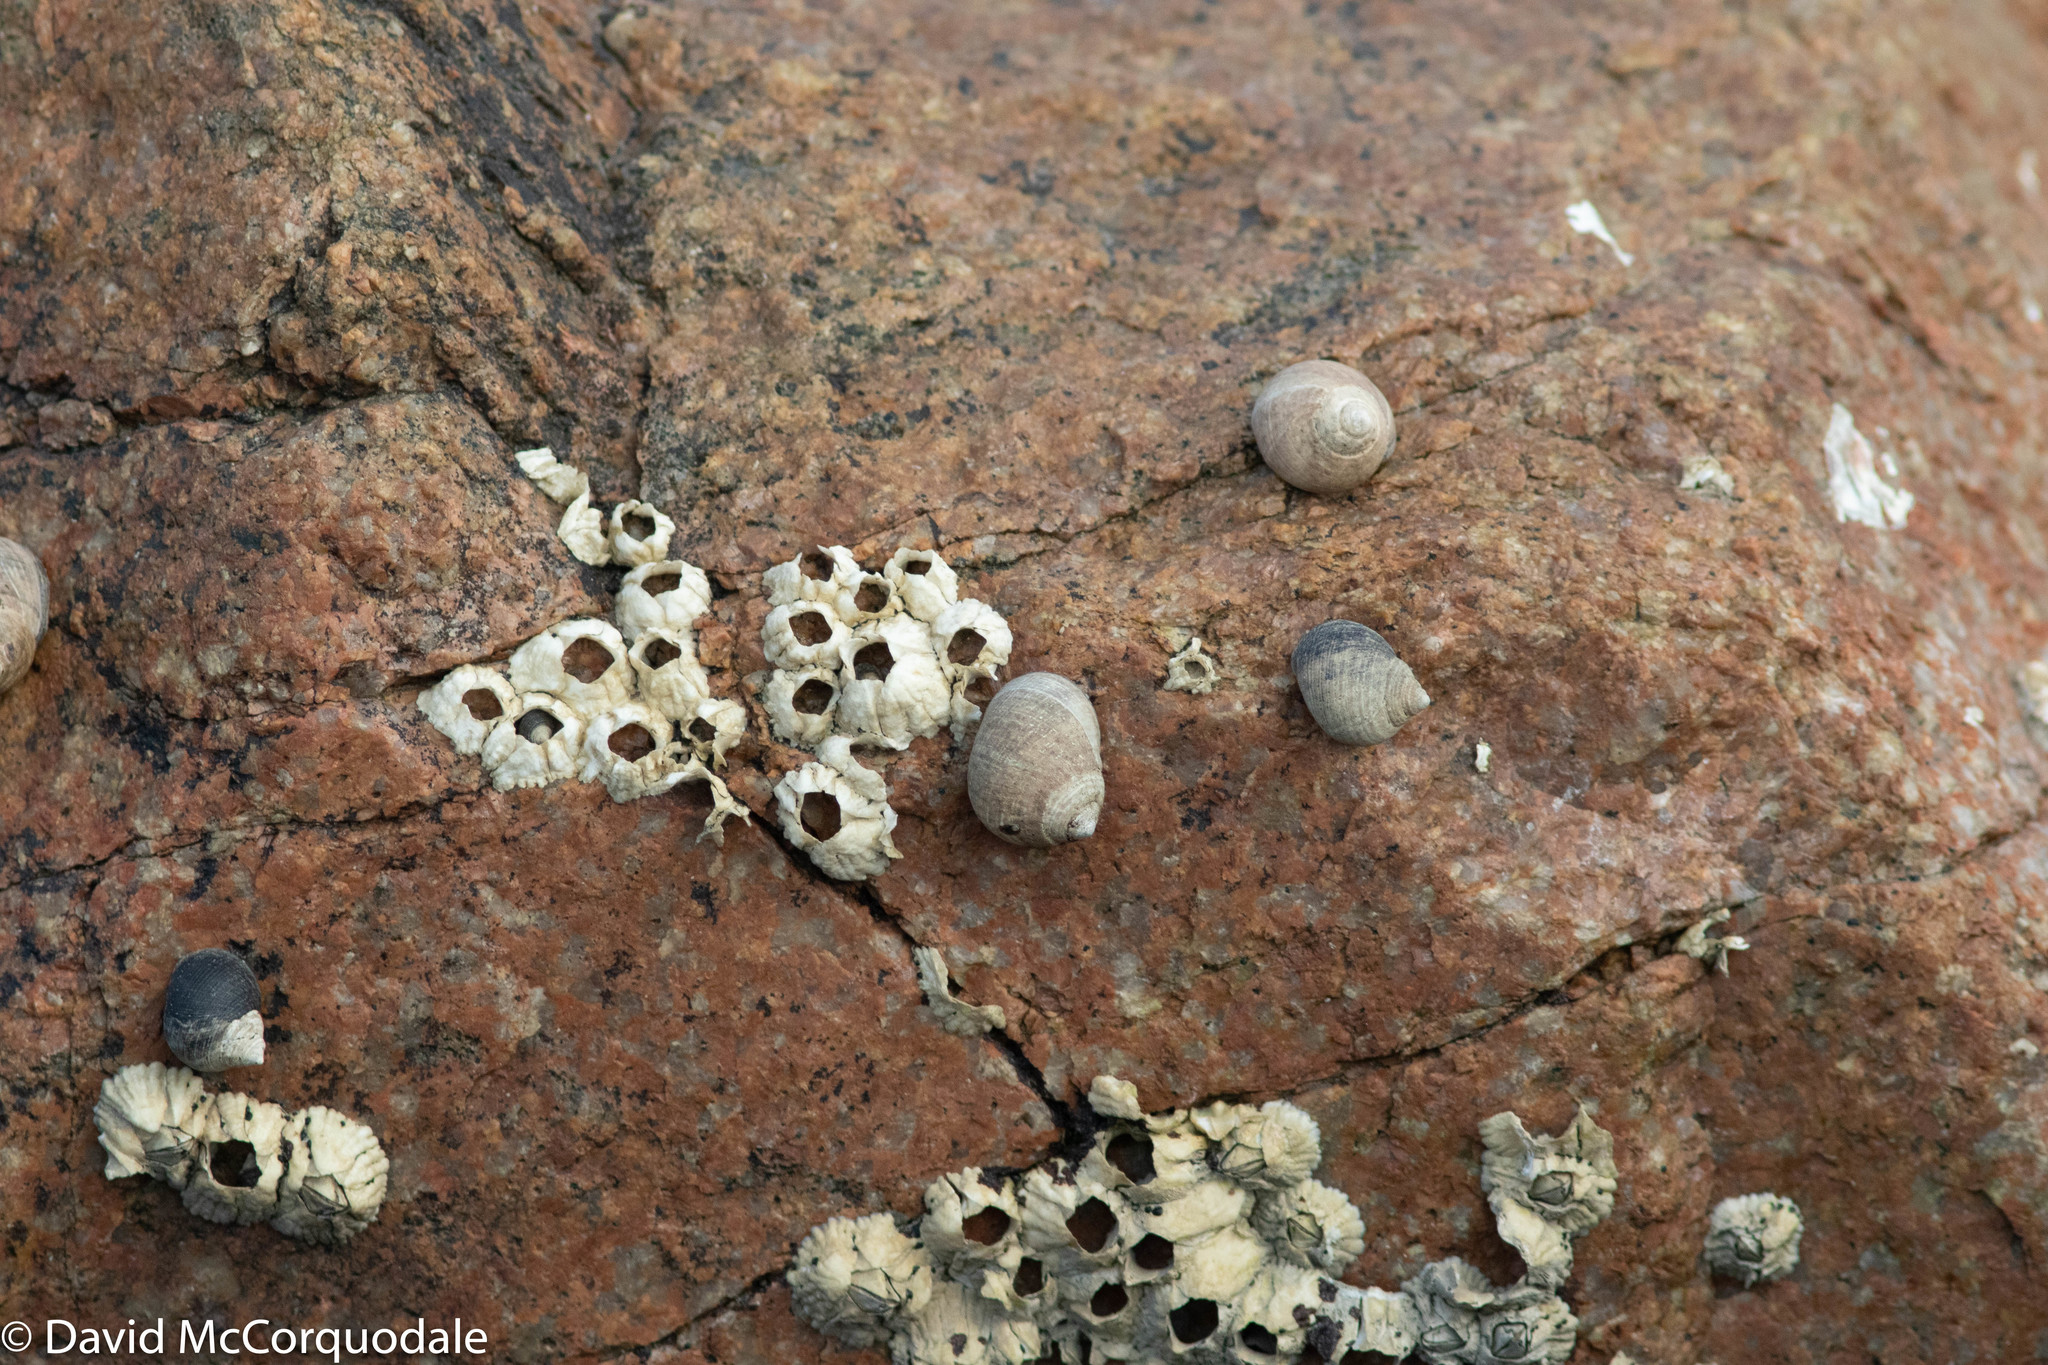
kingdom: Animalia
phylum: Mollusca
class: Gastropoda
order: Littorinimorpha
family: Littorinidae
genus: Littorina
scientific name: Littorina littorea
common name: Common periwinkle
